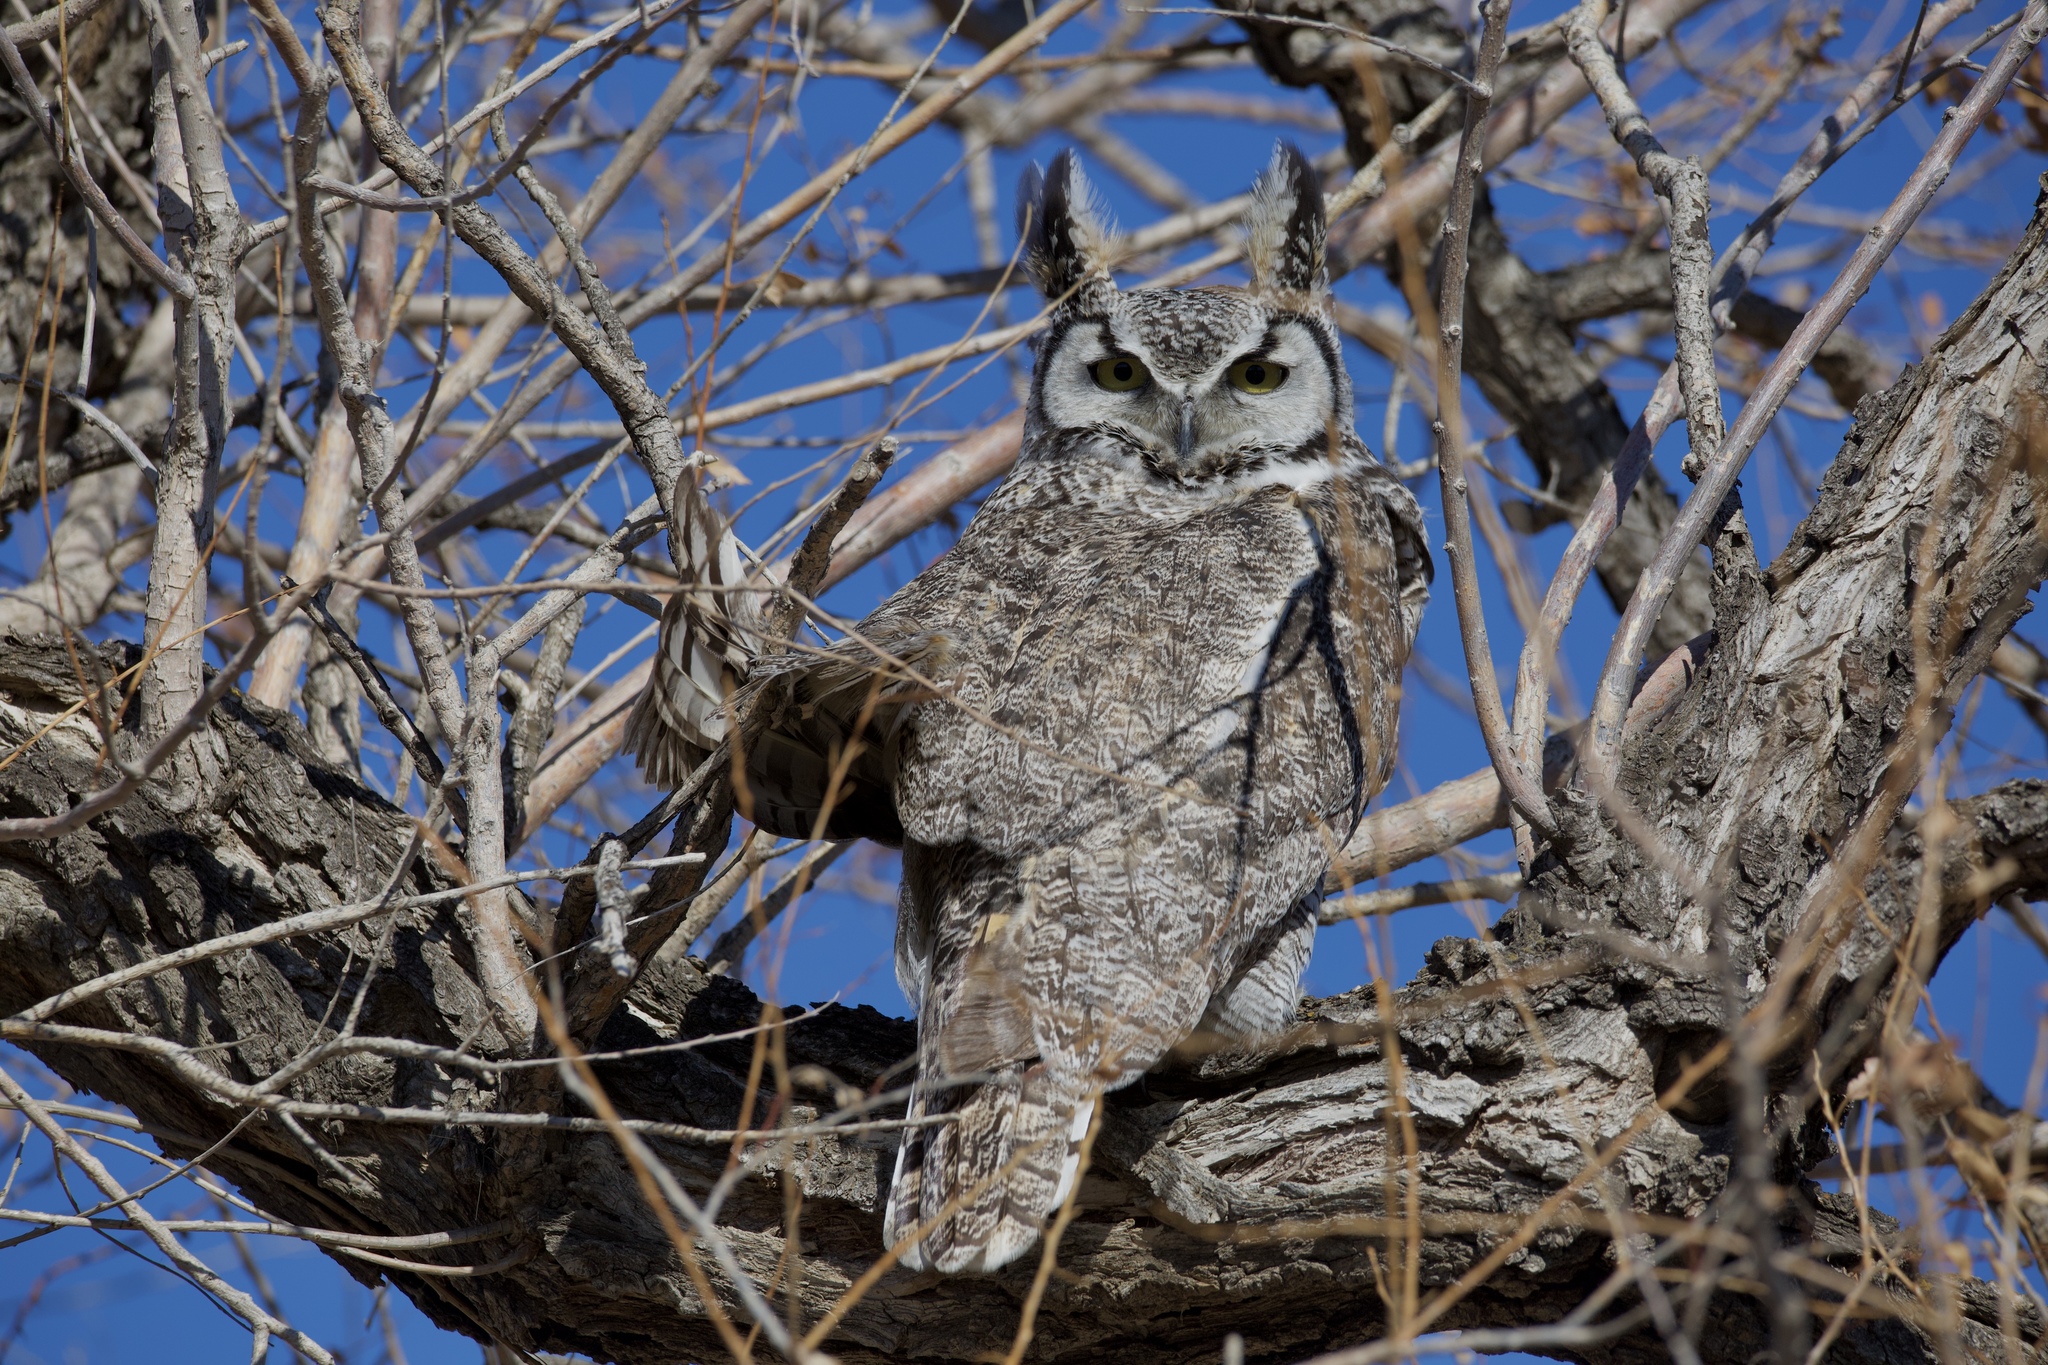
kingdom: Animalia
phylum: Chordata
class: Aves
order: Strigiformes
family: Strigidae
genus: Bubo
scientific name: Bubo virginianus
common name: Great horned owl
